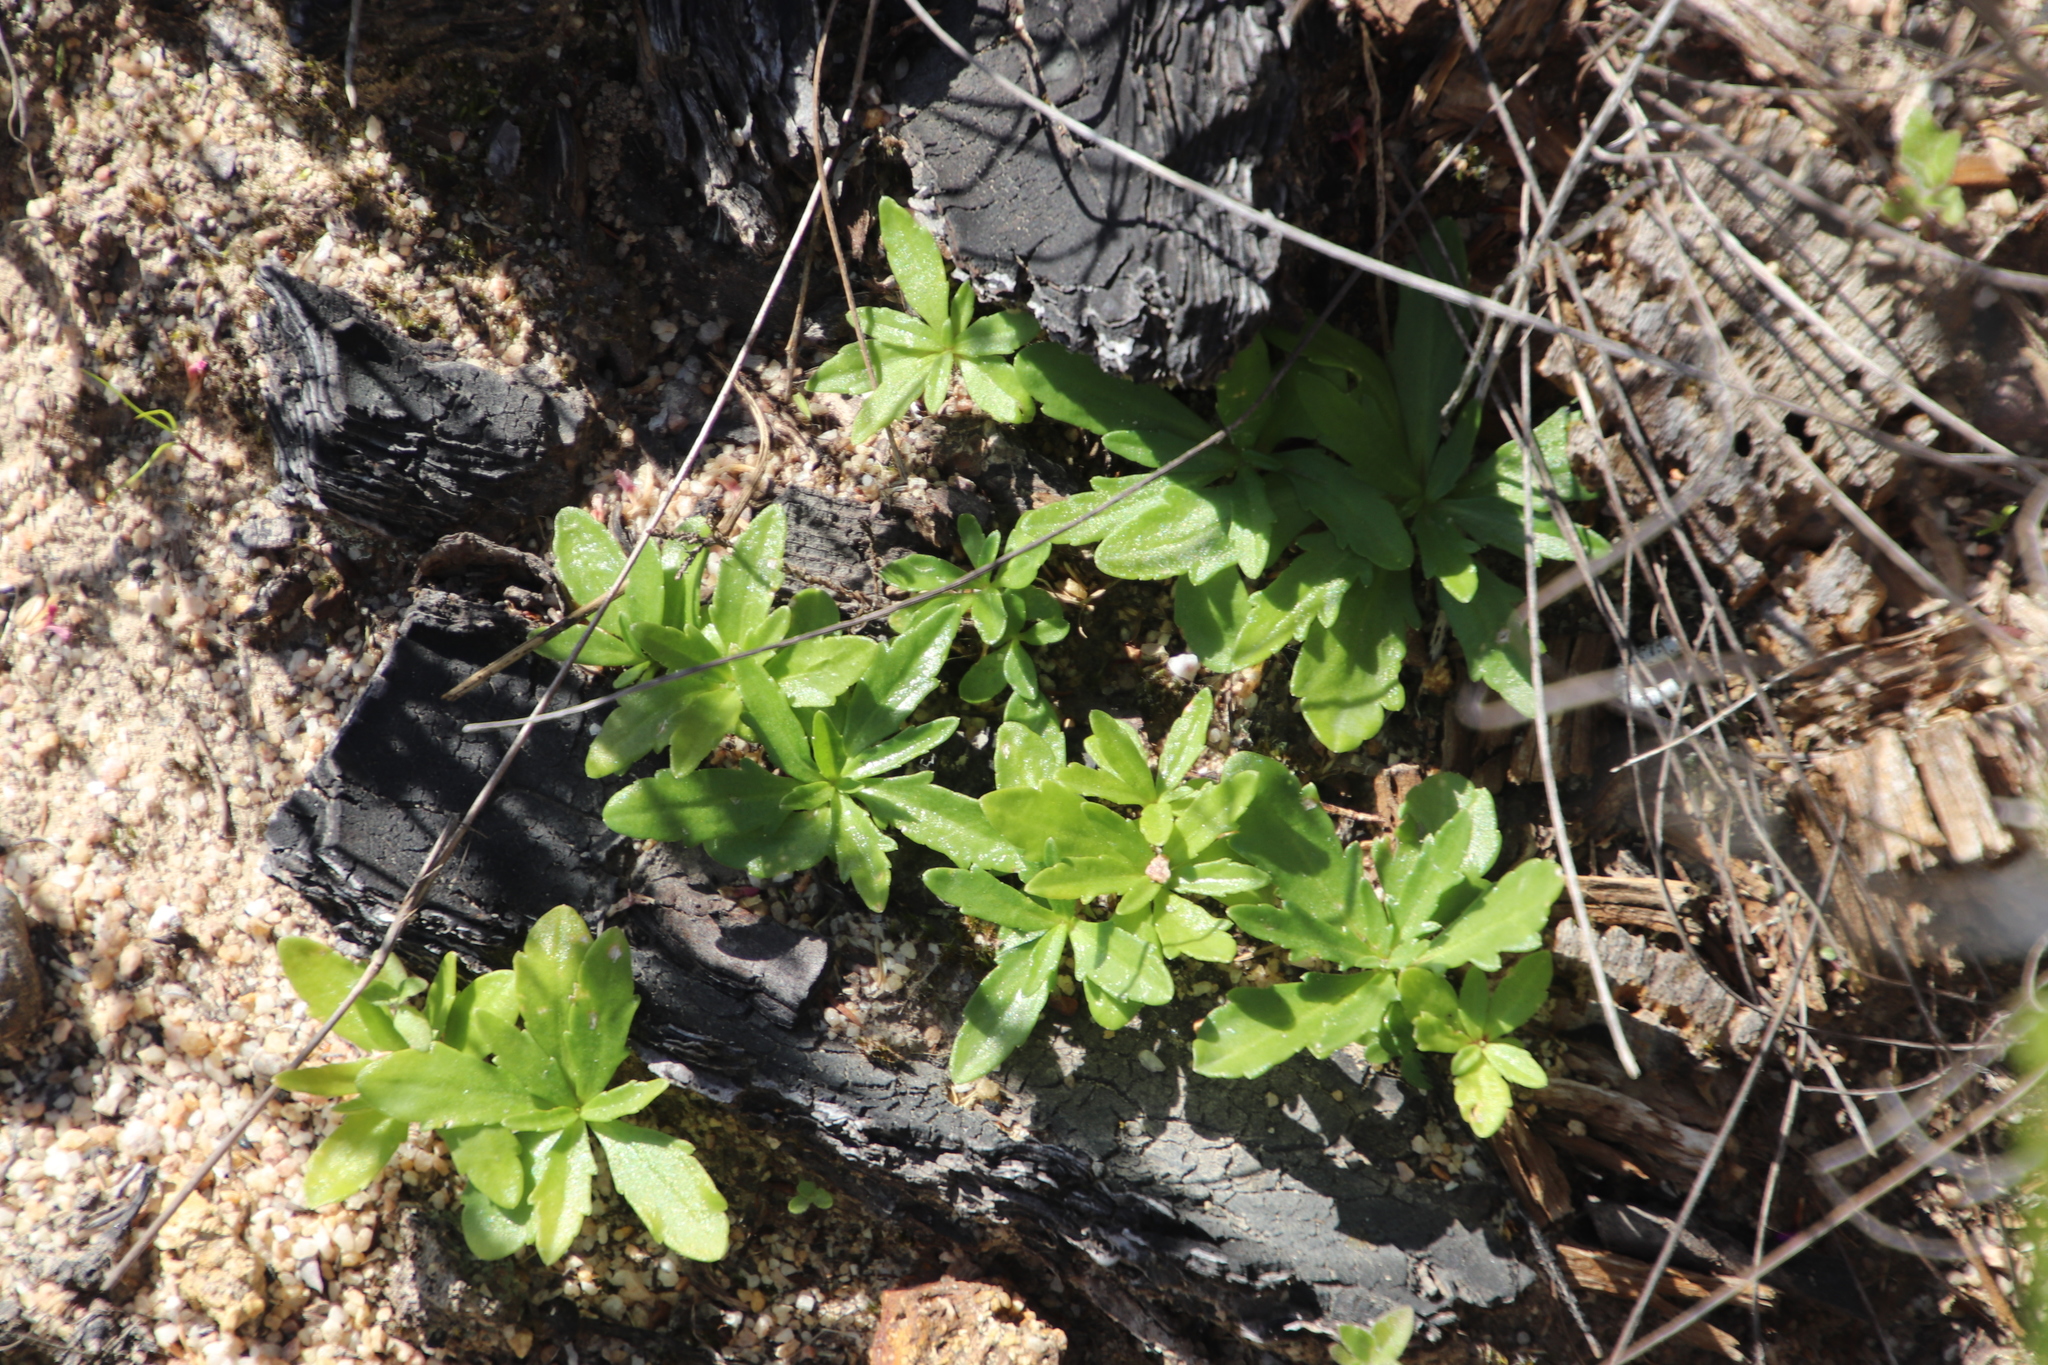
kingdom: Plantae
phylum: Tracheophyta
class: Magnoliopsida
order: Asterales
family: Campanulaceae
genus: Cyphia
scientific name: Cyphia bulbosa
